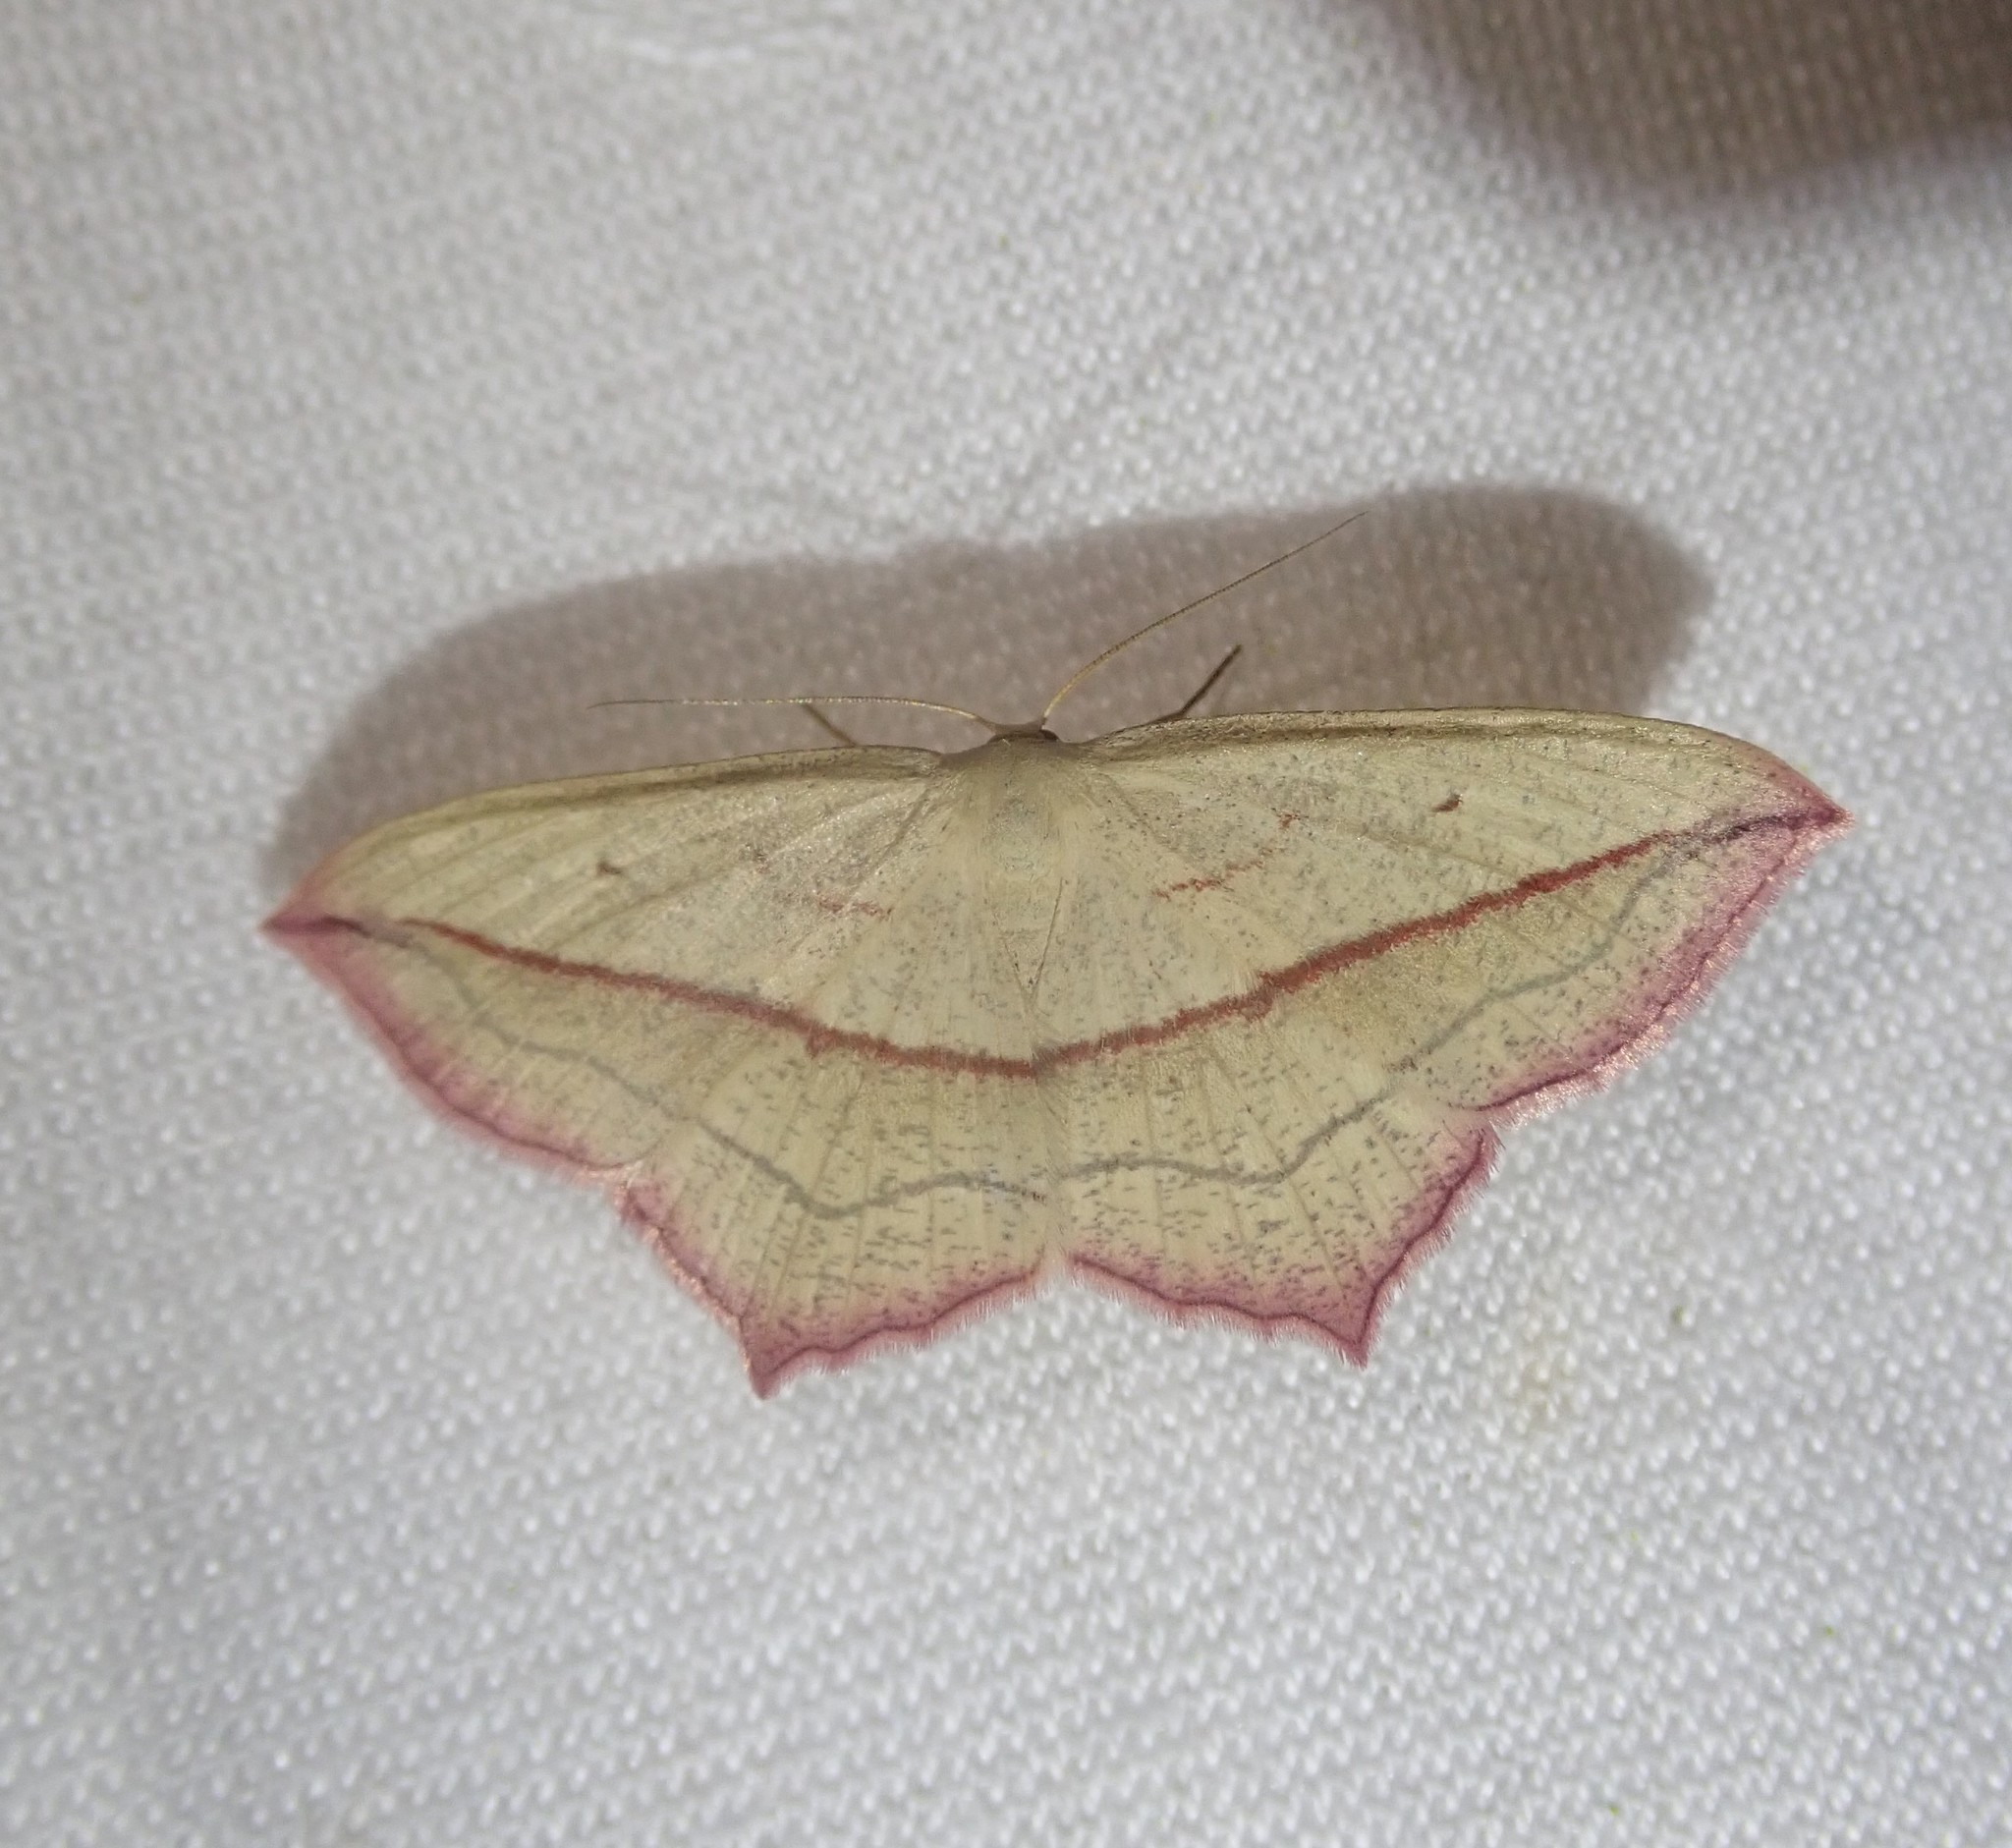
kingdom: Animalia
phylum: Arthropoda
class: Insecta
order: Lepidoptera
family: Geometridae
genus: Timandra
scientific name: Timandra comae
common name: Blood-vein
